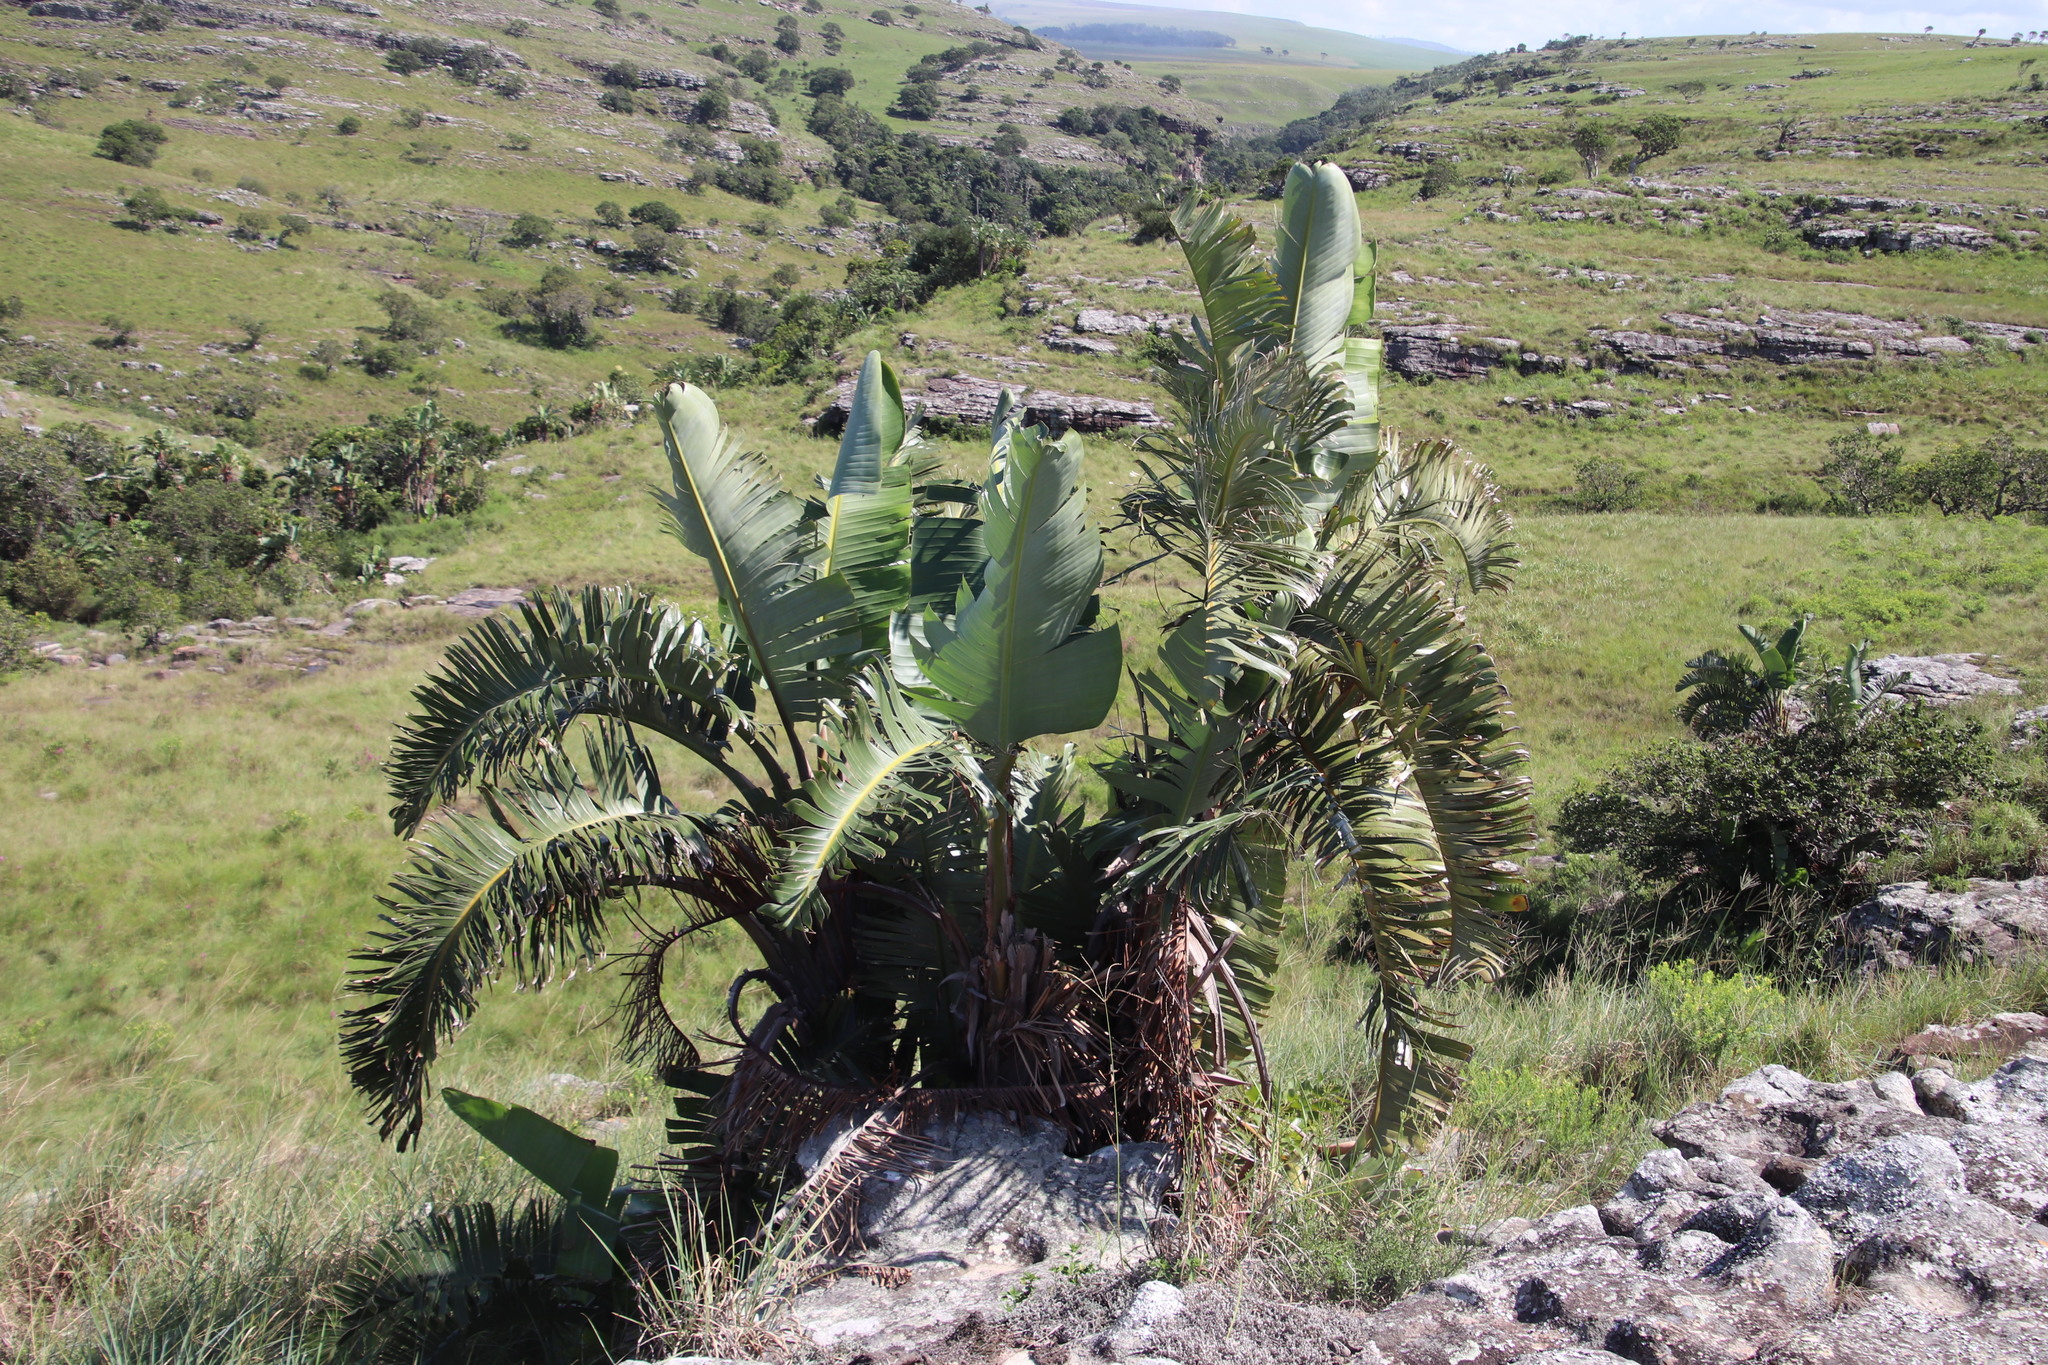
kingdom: Plantae
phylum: Tracheophyta
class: Liliopsida
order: Zingiberales
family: Strelitziaceae
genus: Strelitzia
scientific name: Strelitzia nicolai
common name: Bird-of-paradise tree
